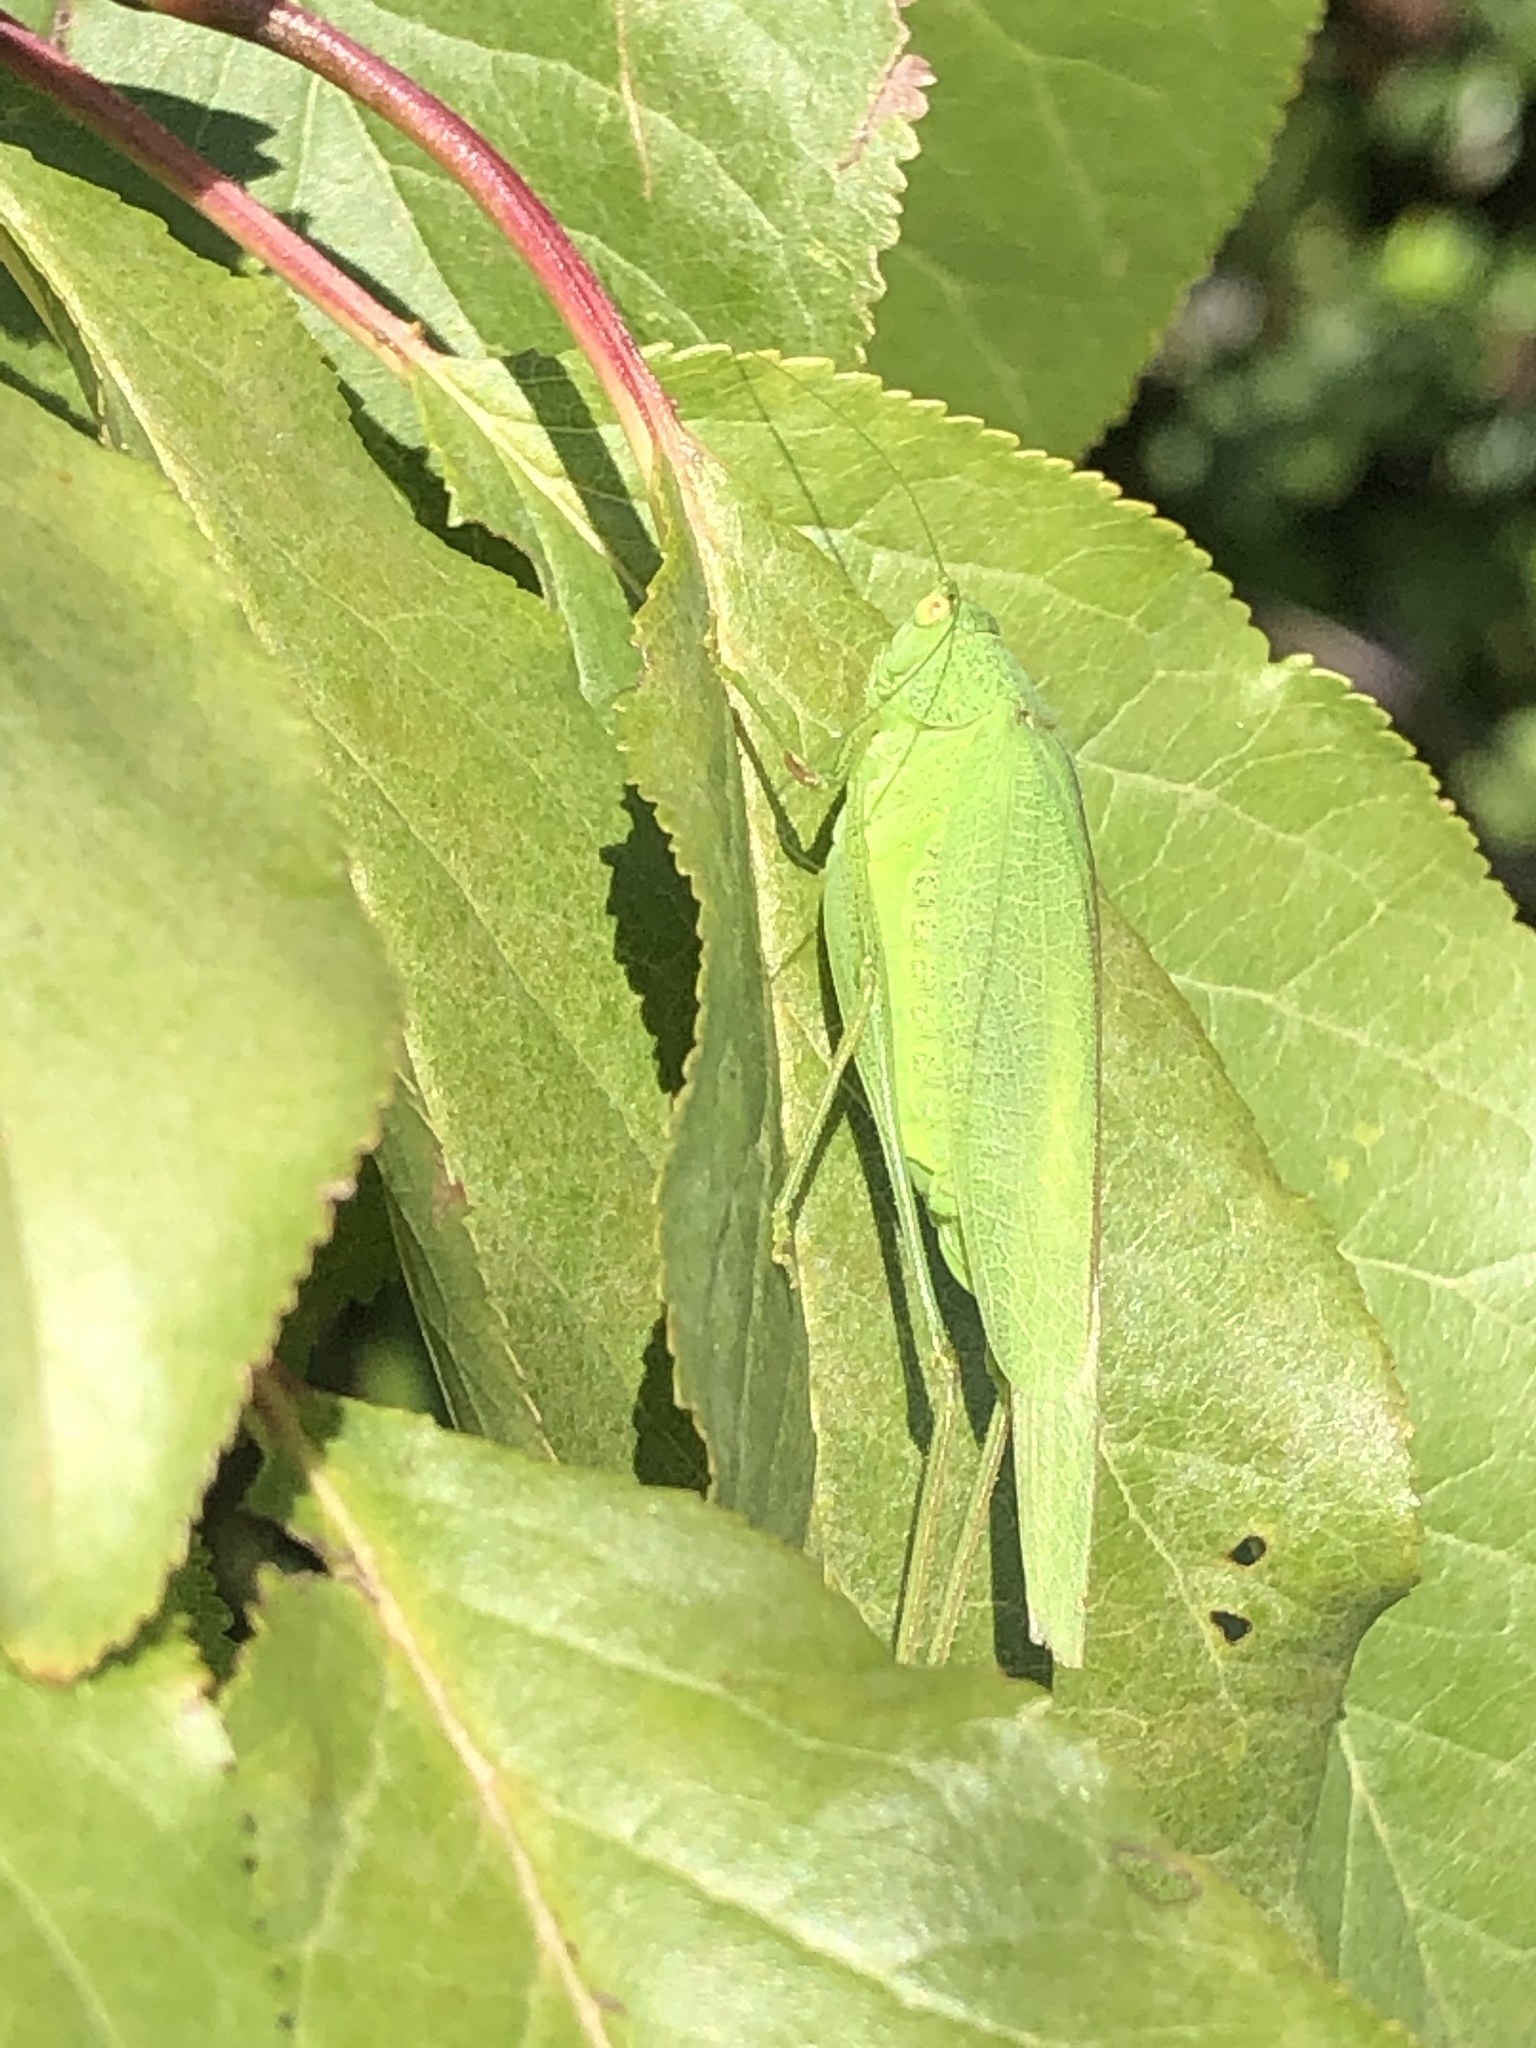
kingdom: Animalia
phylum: Arthropoda
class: Insecta
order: Orthoptera
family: Tettigoniidae
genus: Phaneroptera
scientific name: Phaneroptera nana
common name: Southern sickle bush-cricket
